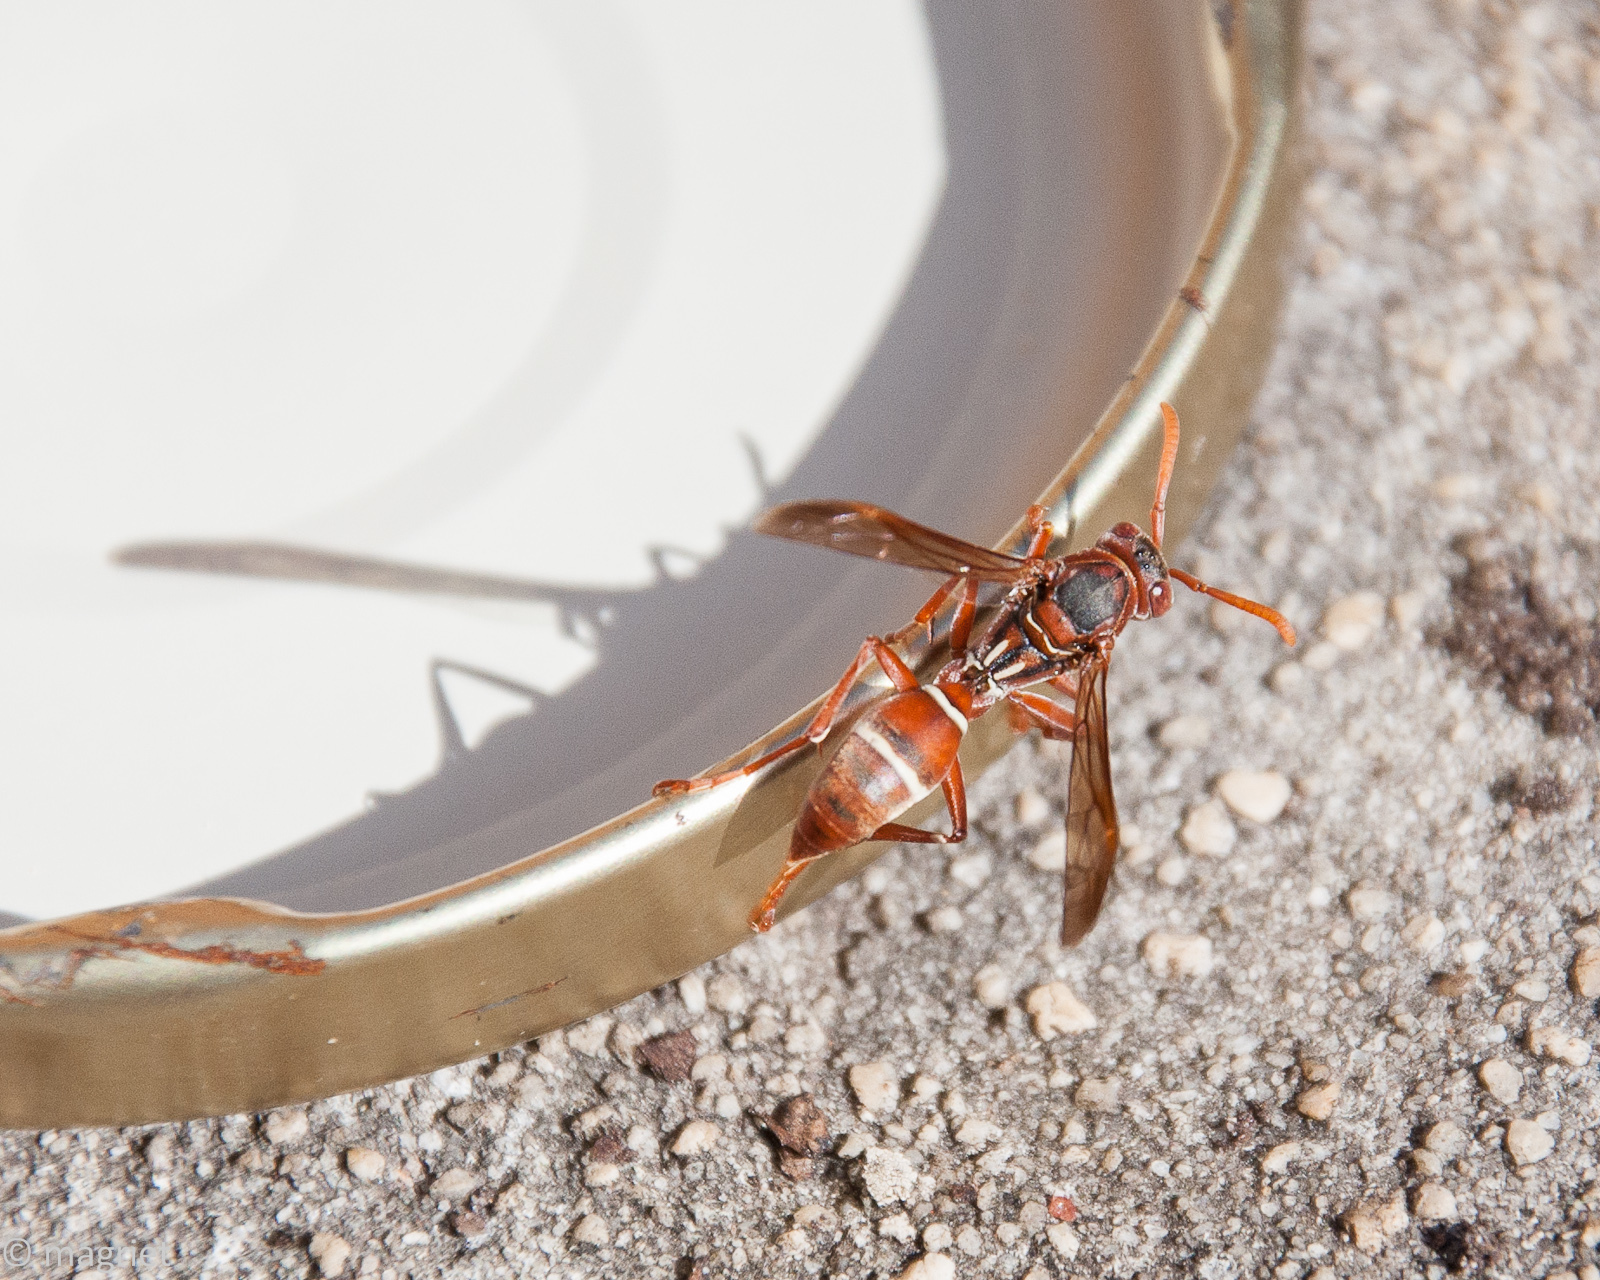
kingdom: Animalia
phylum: Arthropoda
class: Insecta
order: Hymenoptera
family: Eumenidae
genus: Polistes
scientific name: Polistes marginalis
